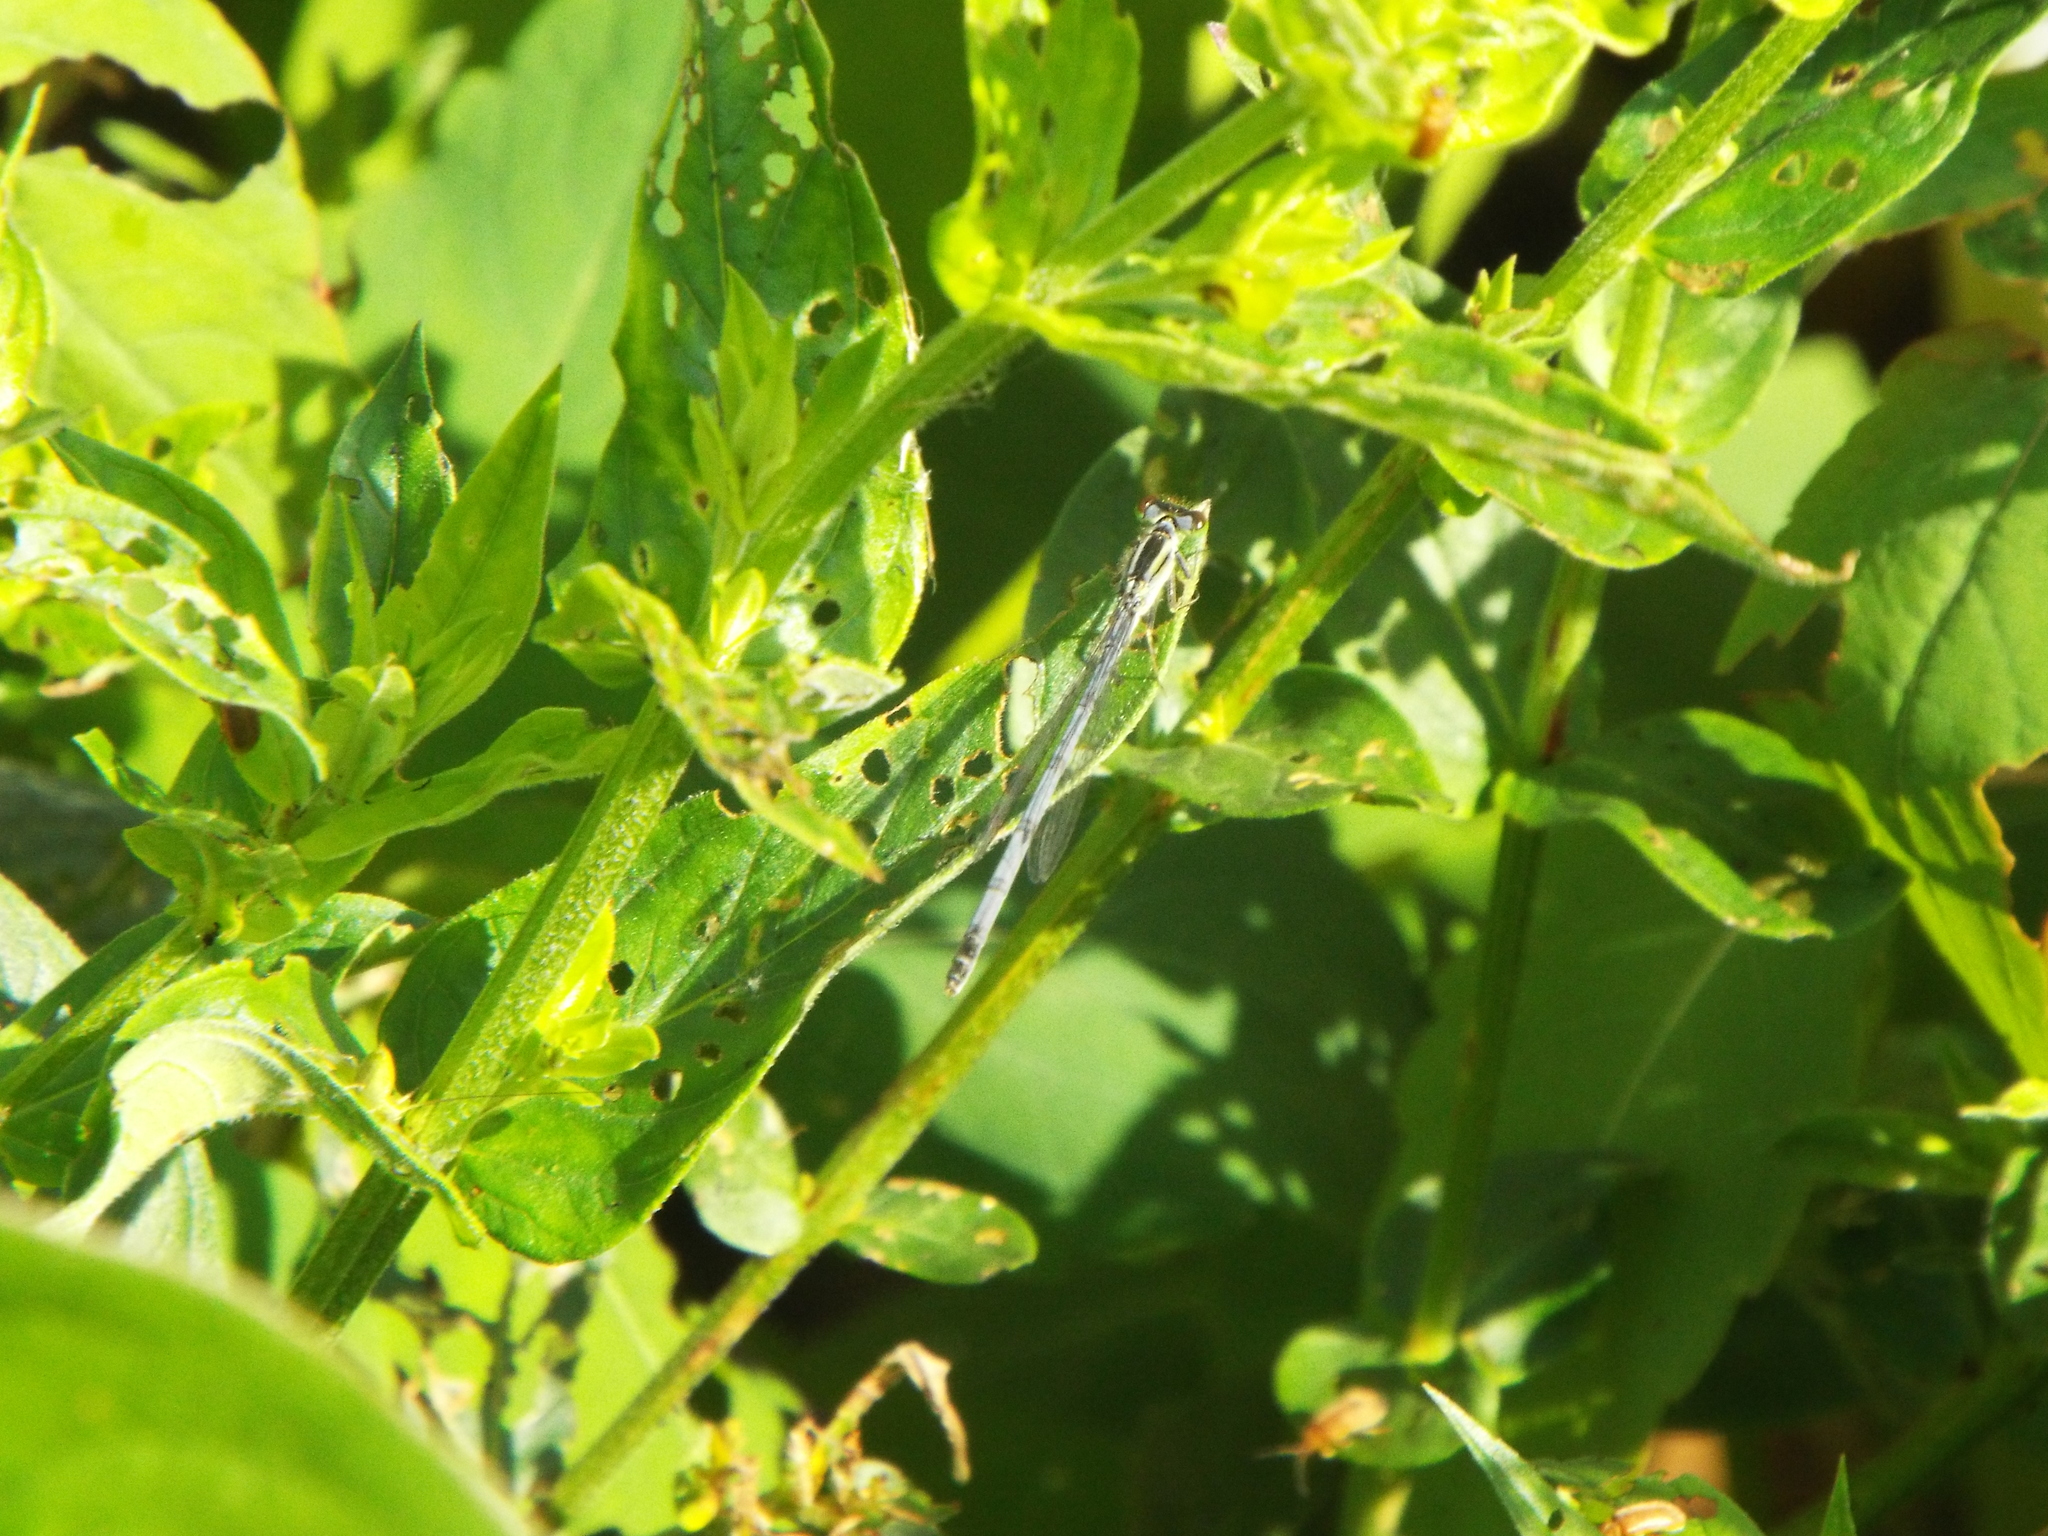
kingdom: Animalia
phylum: Arthropoda
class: Insecta
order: Odonata
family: Coenagrionidae
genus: Ischnura
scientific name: Ischnura verticalis
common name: Eastern forktail
